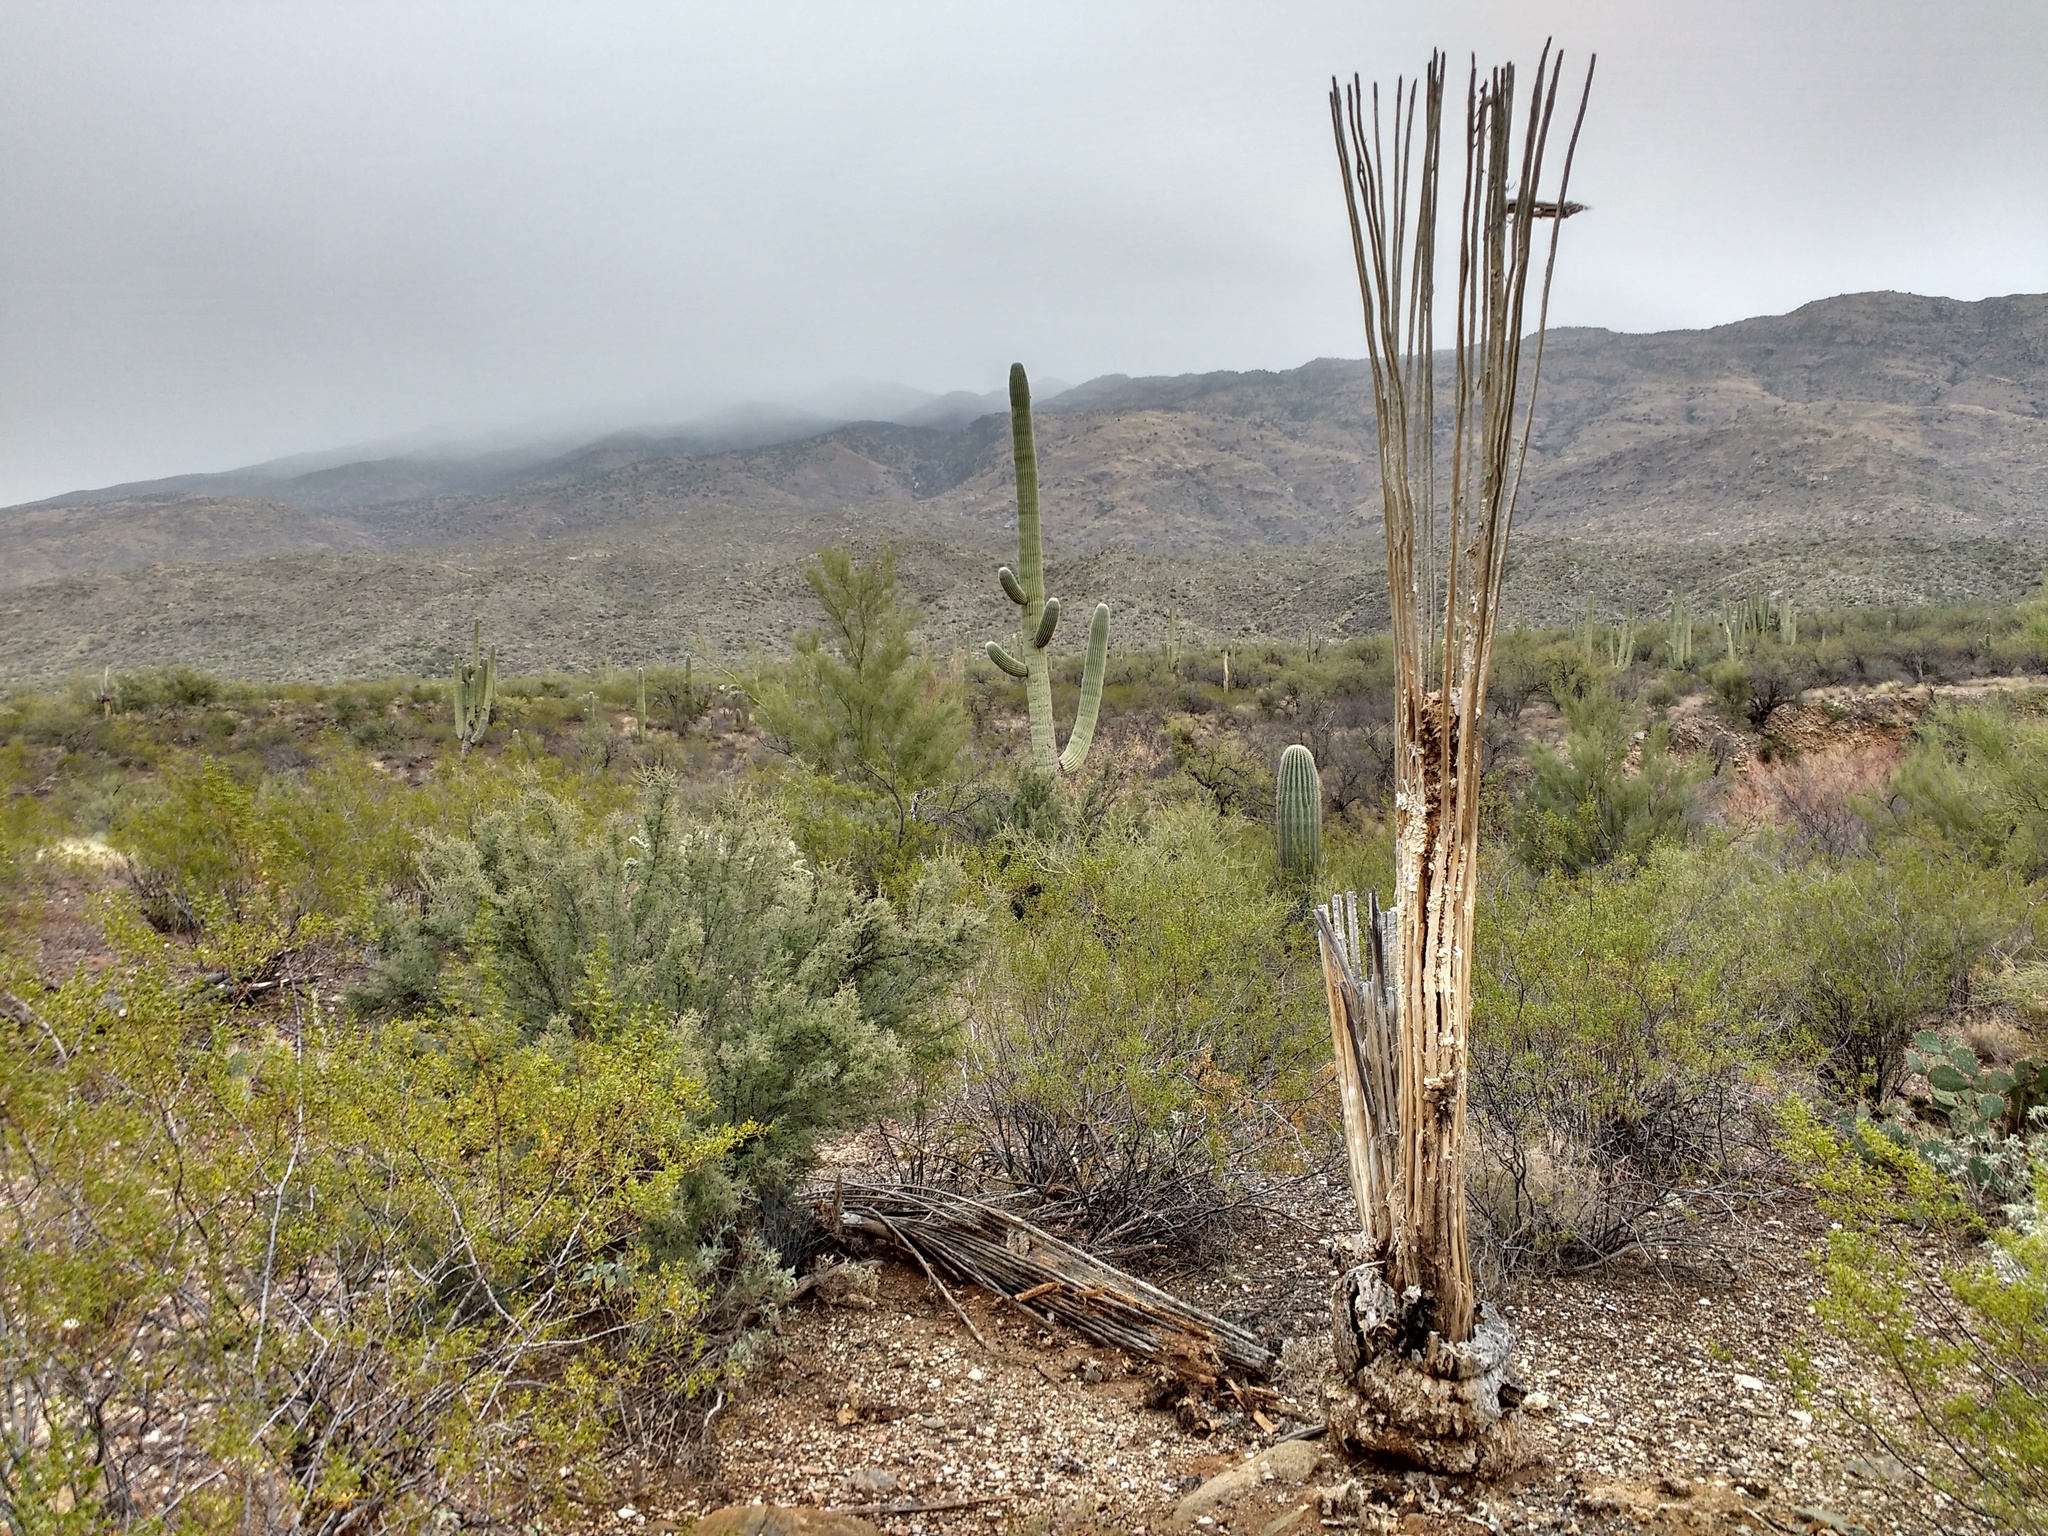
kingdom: Plantae
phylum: Tracheophyta
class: Magnoliopsida
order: Caryophyllales
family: Cactaceae
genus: Carnegiea
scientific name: Carnegiea gigantea
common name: Saguaro
